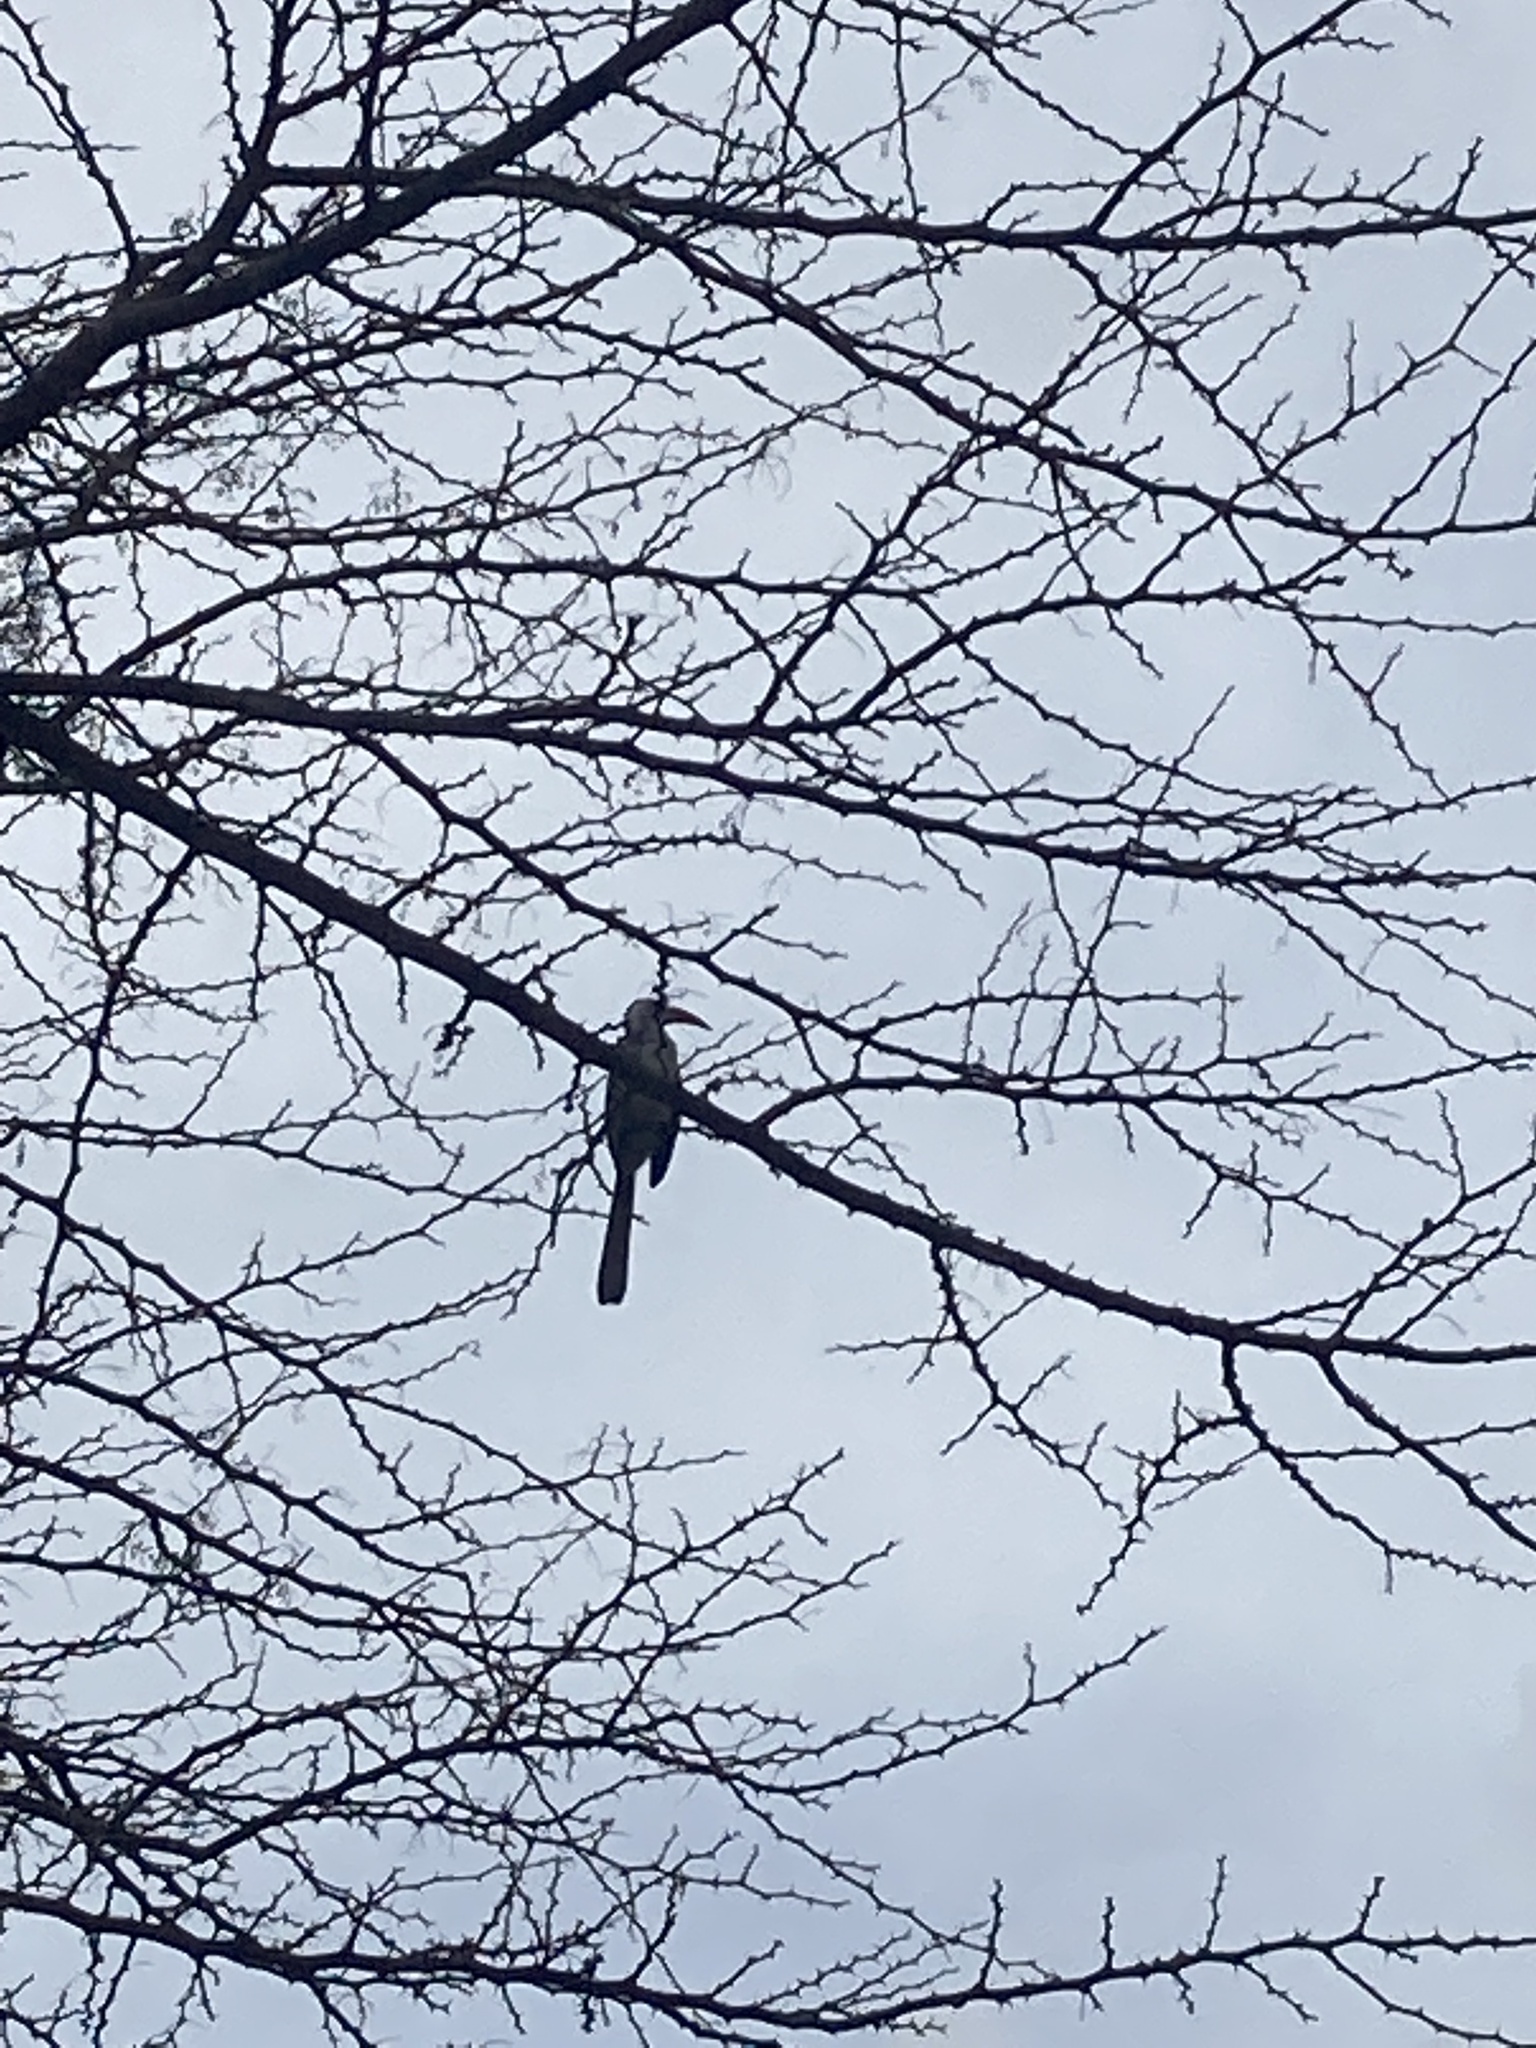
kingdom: Animalia
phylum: Chordata
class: Aves
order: Bucerotiformes
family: Bucerotidae
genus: Tockus
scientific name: Tockus kempi
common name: Western red-billed hornbill
